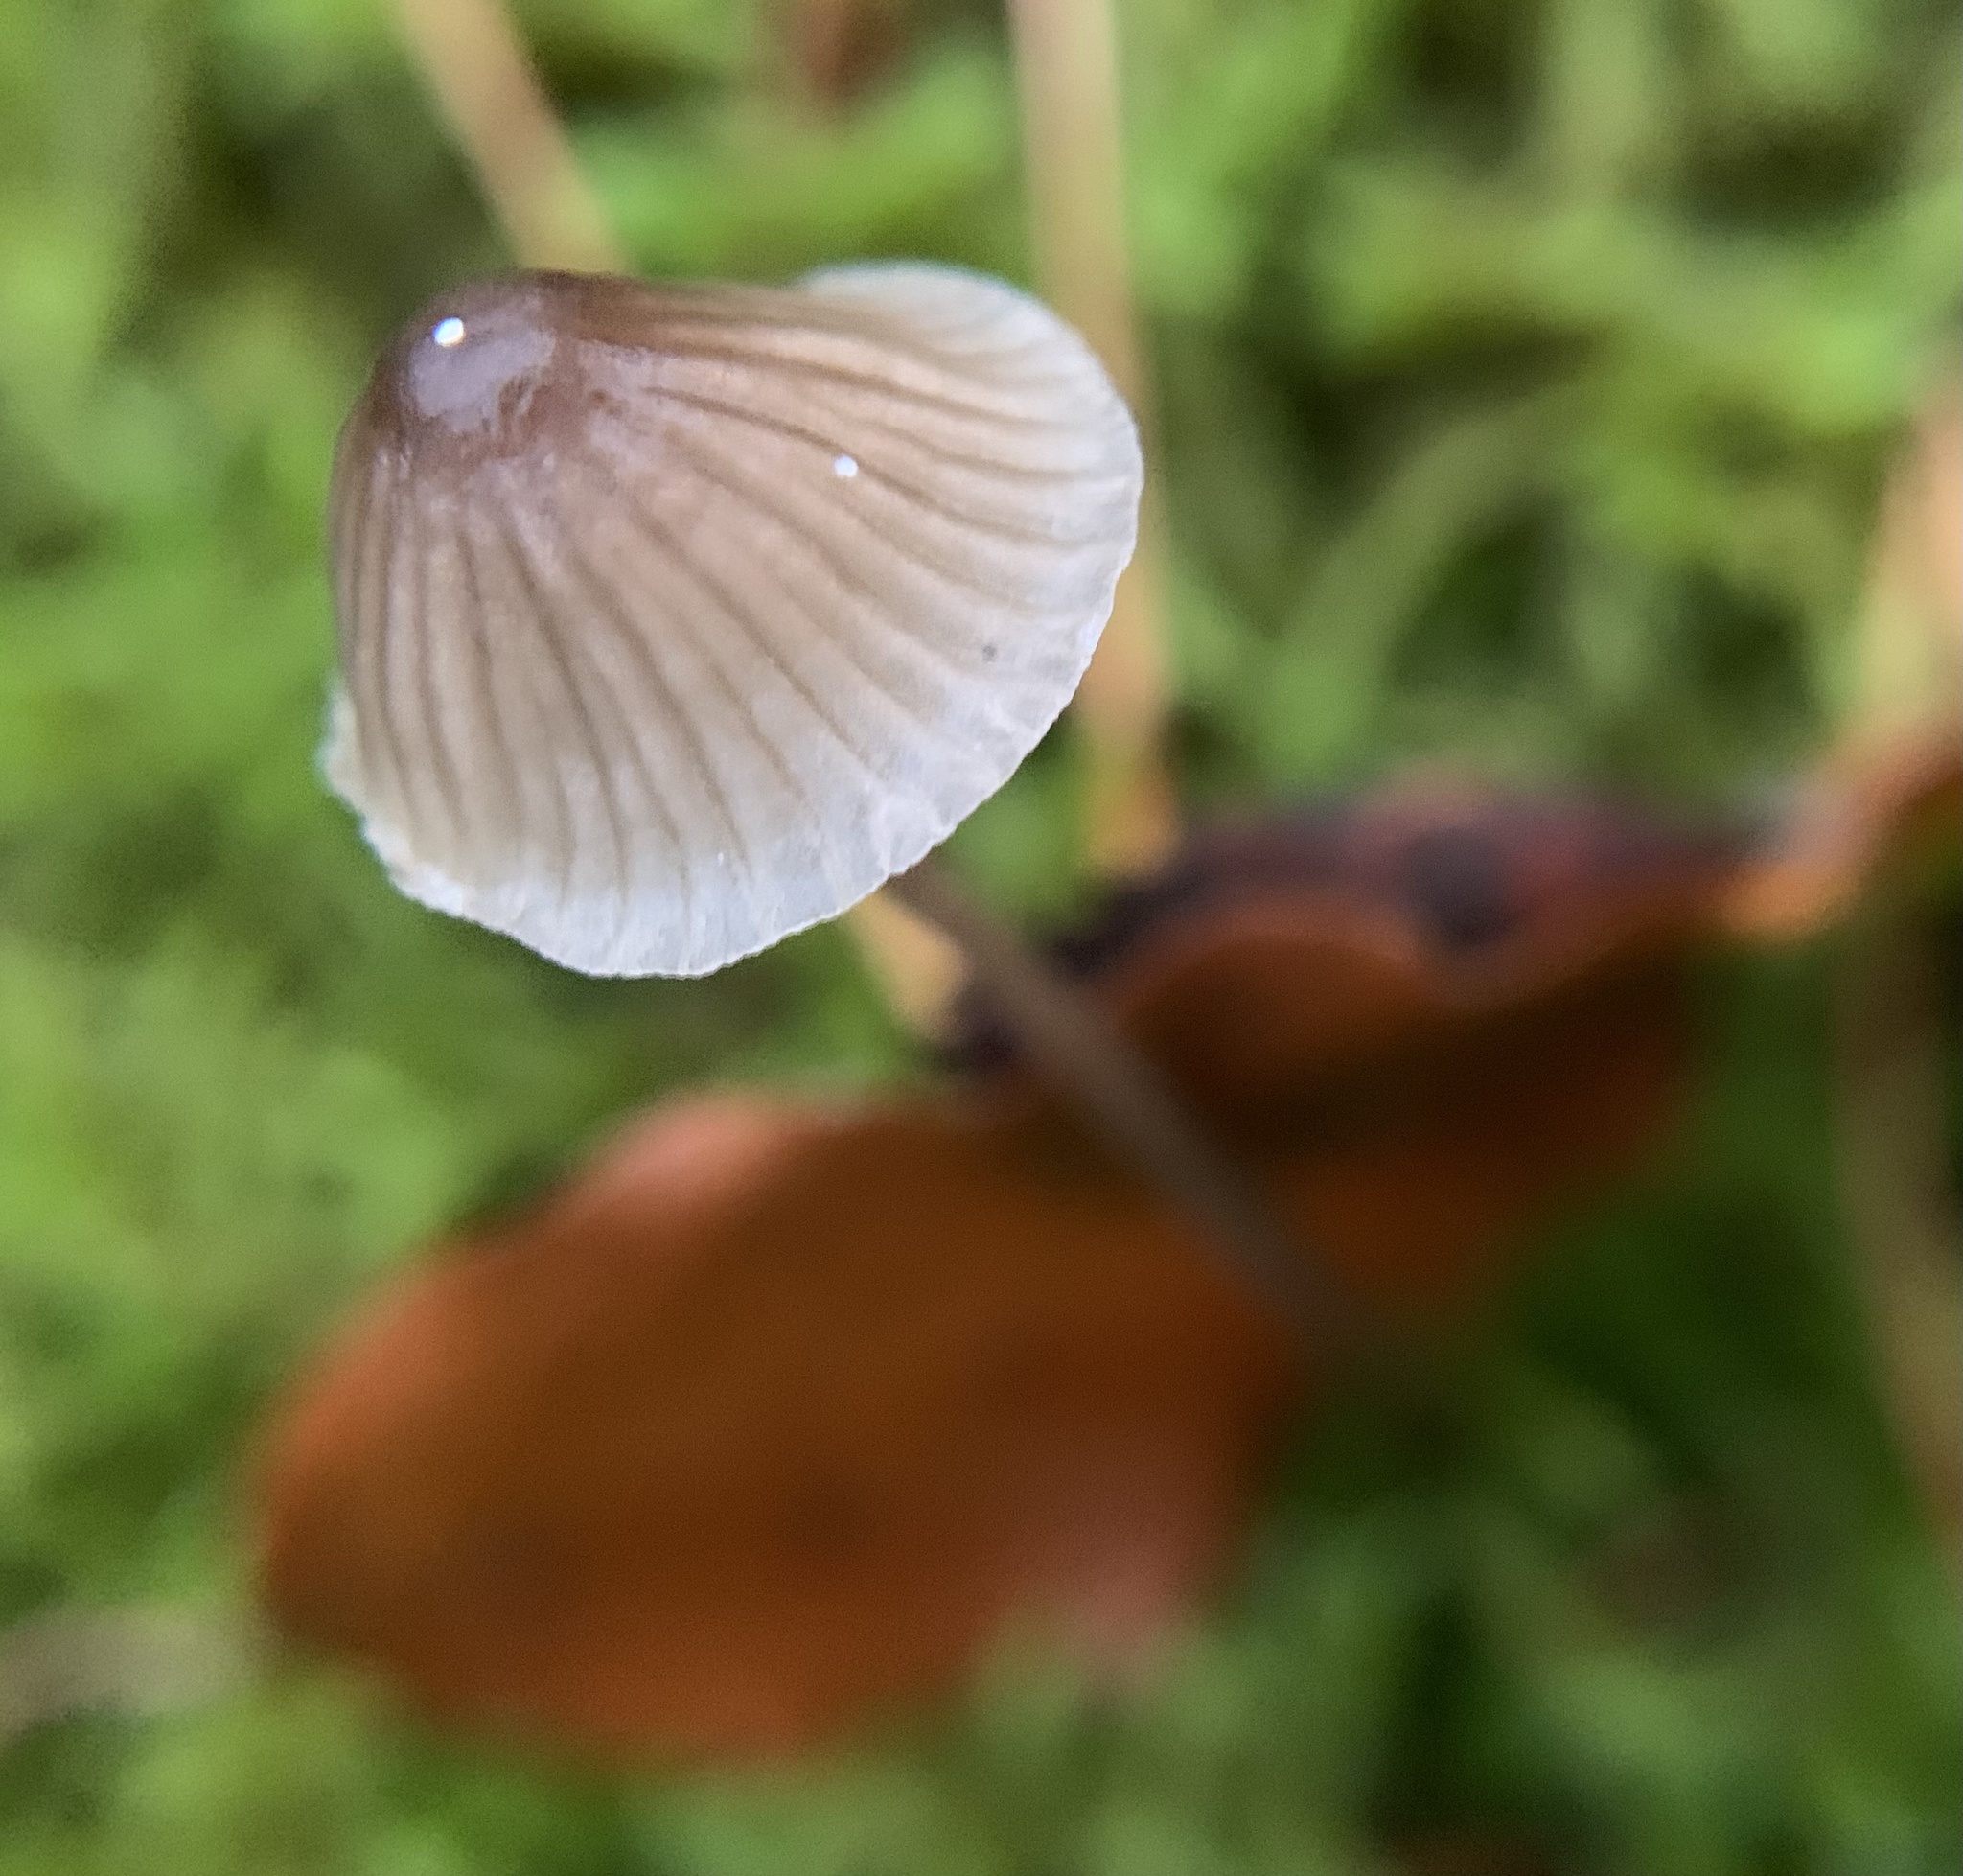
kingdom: Fungi
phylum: Basidiomycota
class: Agaricomycetes
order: Agaricales
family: Mycenaceae
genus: Mycena
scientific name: Mycena galopus
